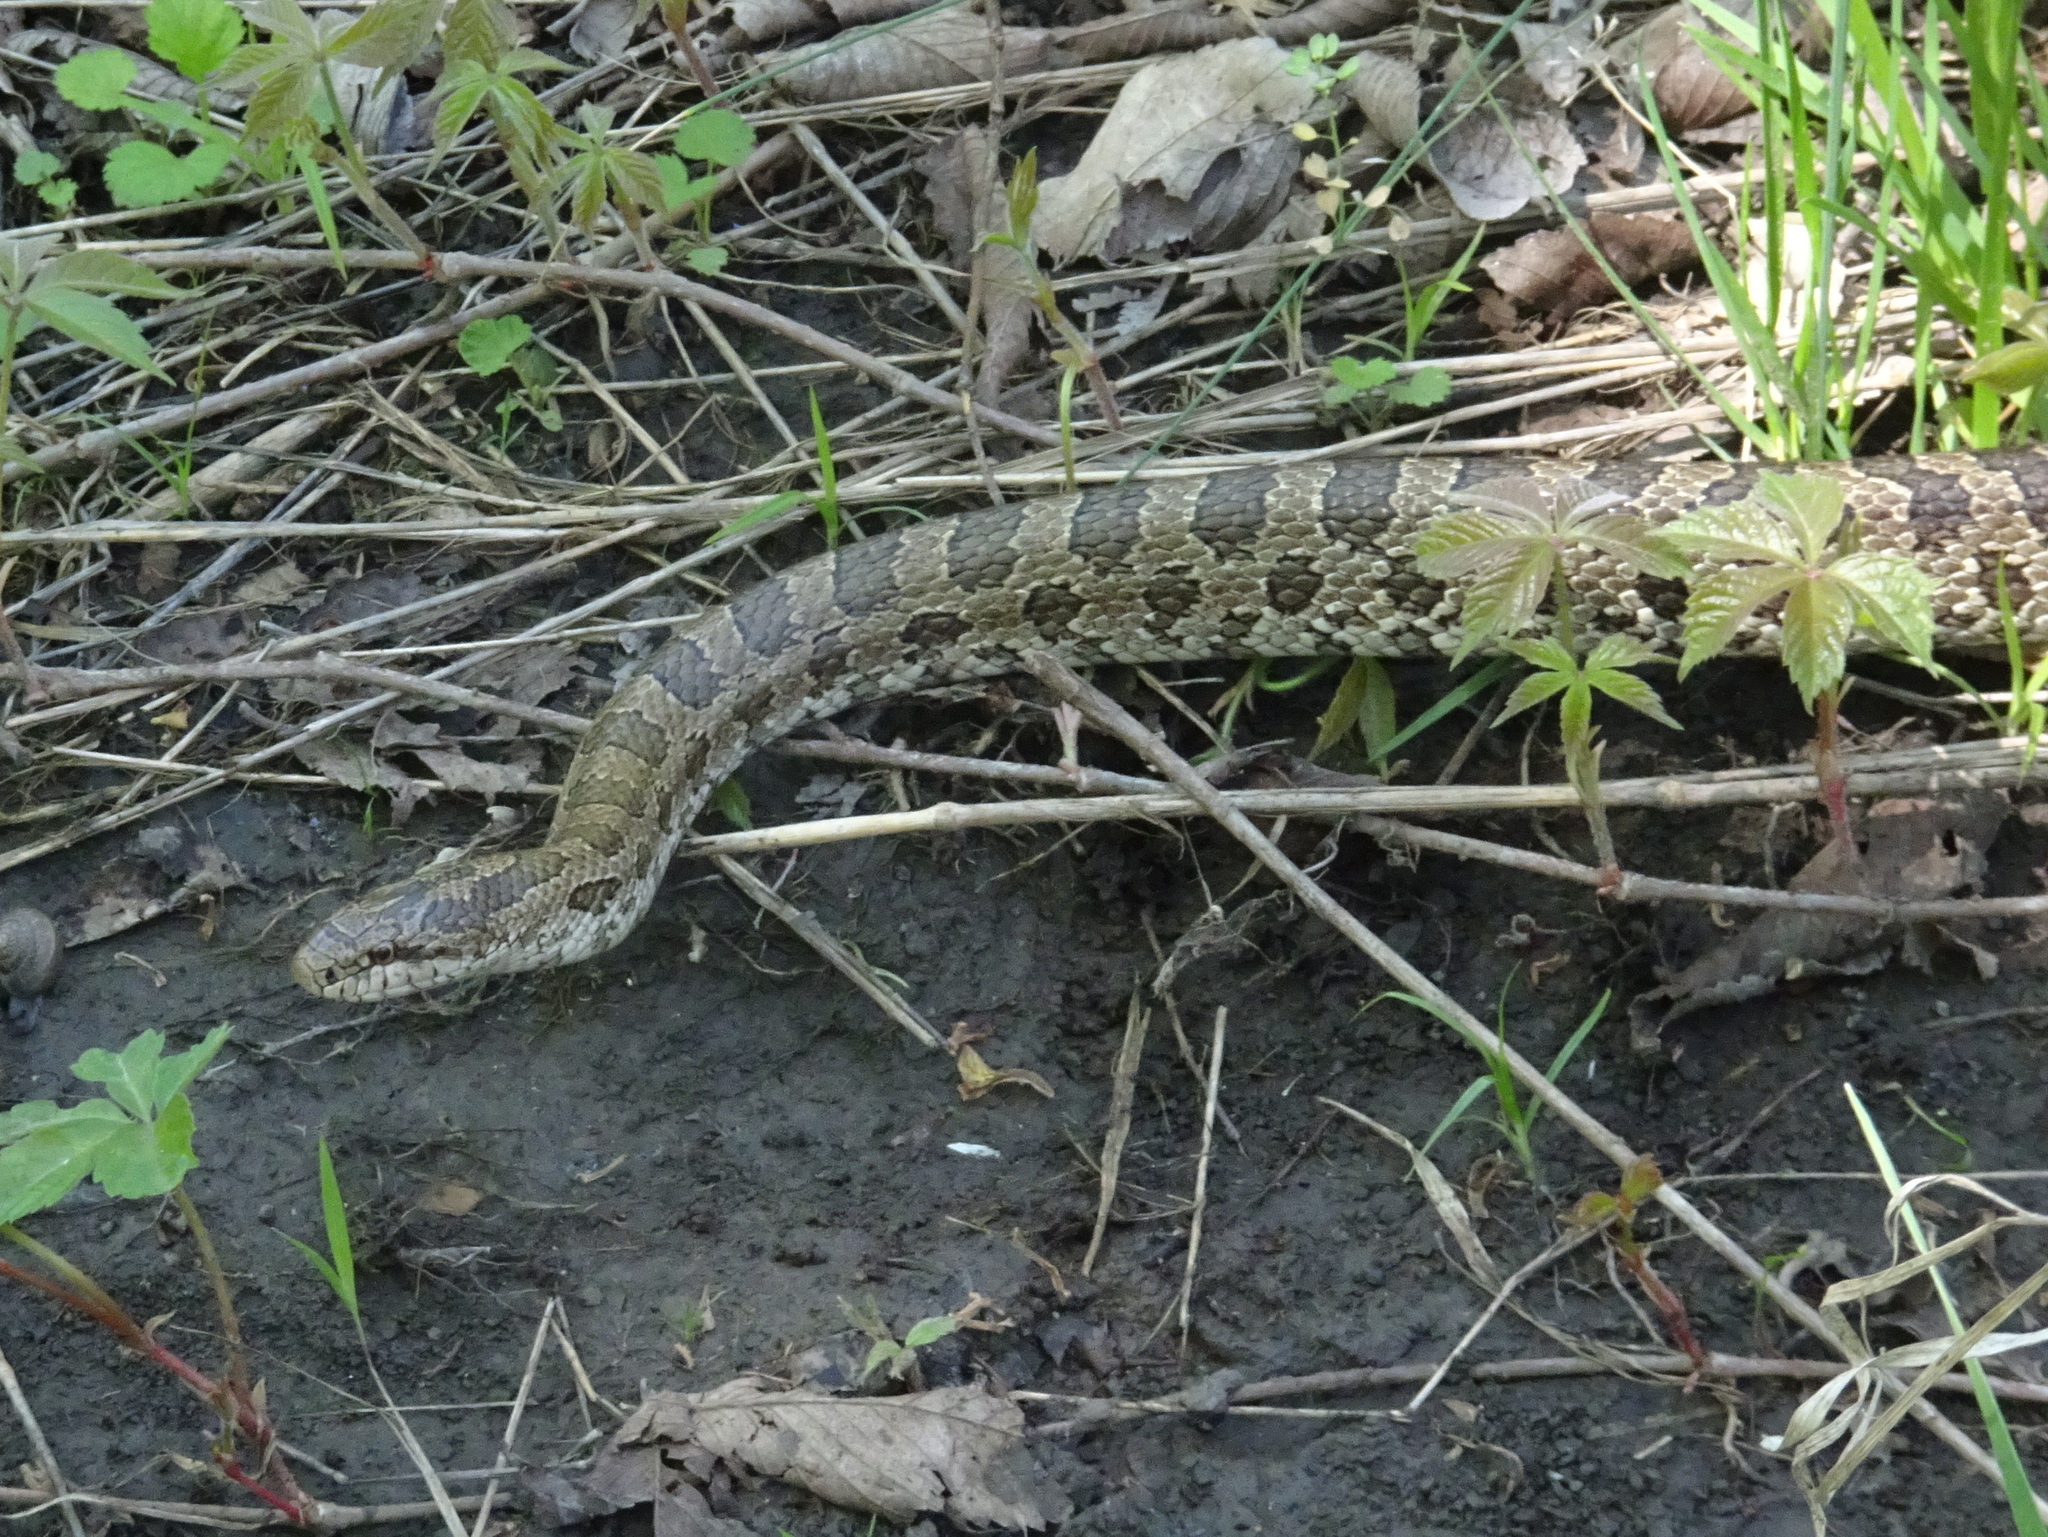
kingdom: Animalia
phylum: Chordata
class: Squamata
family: Colubridae
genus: Lampropeltis
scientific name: Lampropeltis calligaster
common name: Prairie kingsnake
